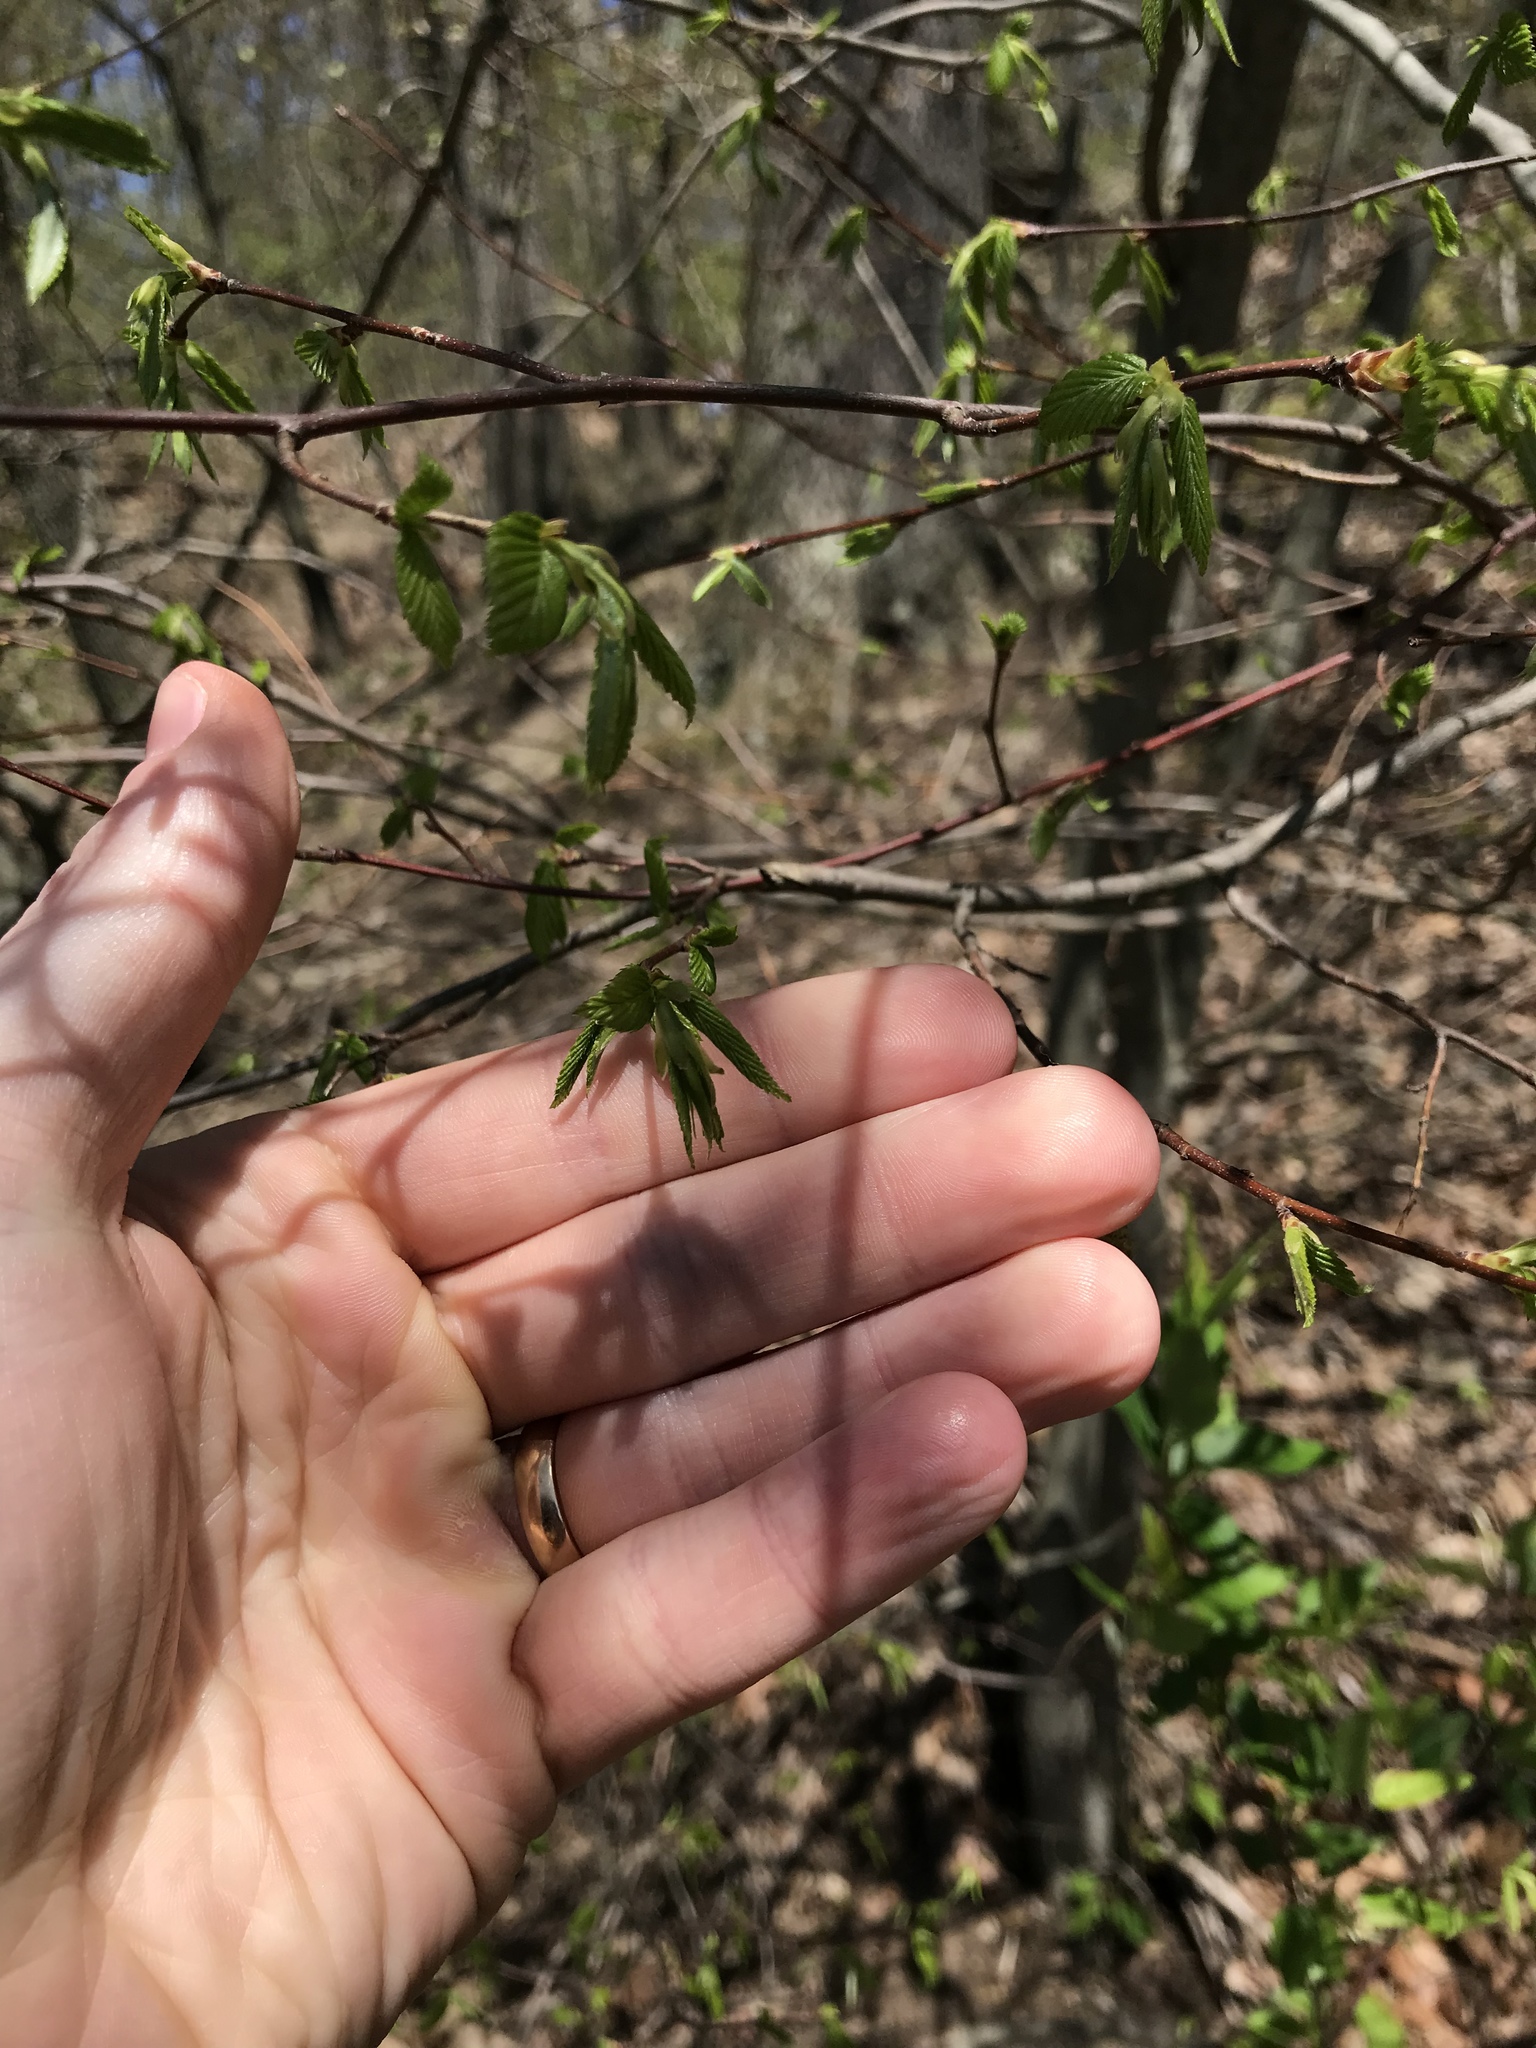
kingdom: Plantae
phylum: Tracheophyta
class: Magnoliopsida
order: Fagales
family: Betulaceae
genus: Carpinus
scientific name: Carpinus caroliniana
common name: American hornbeam
